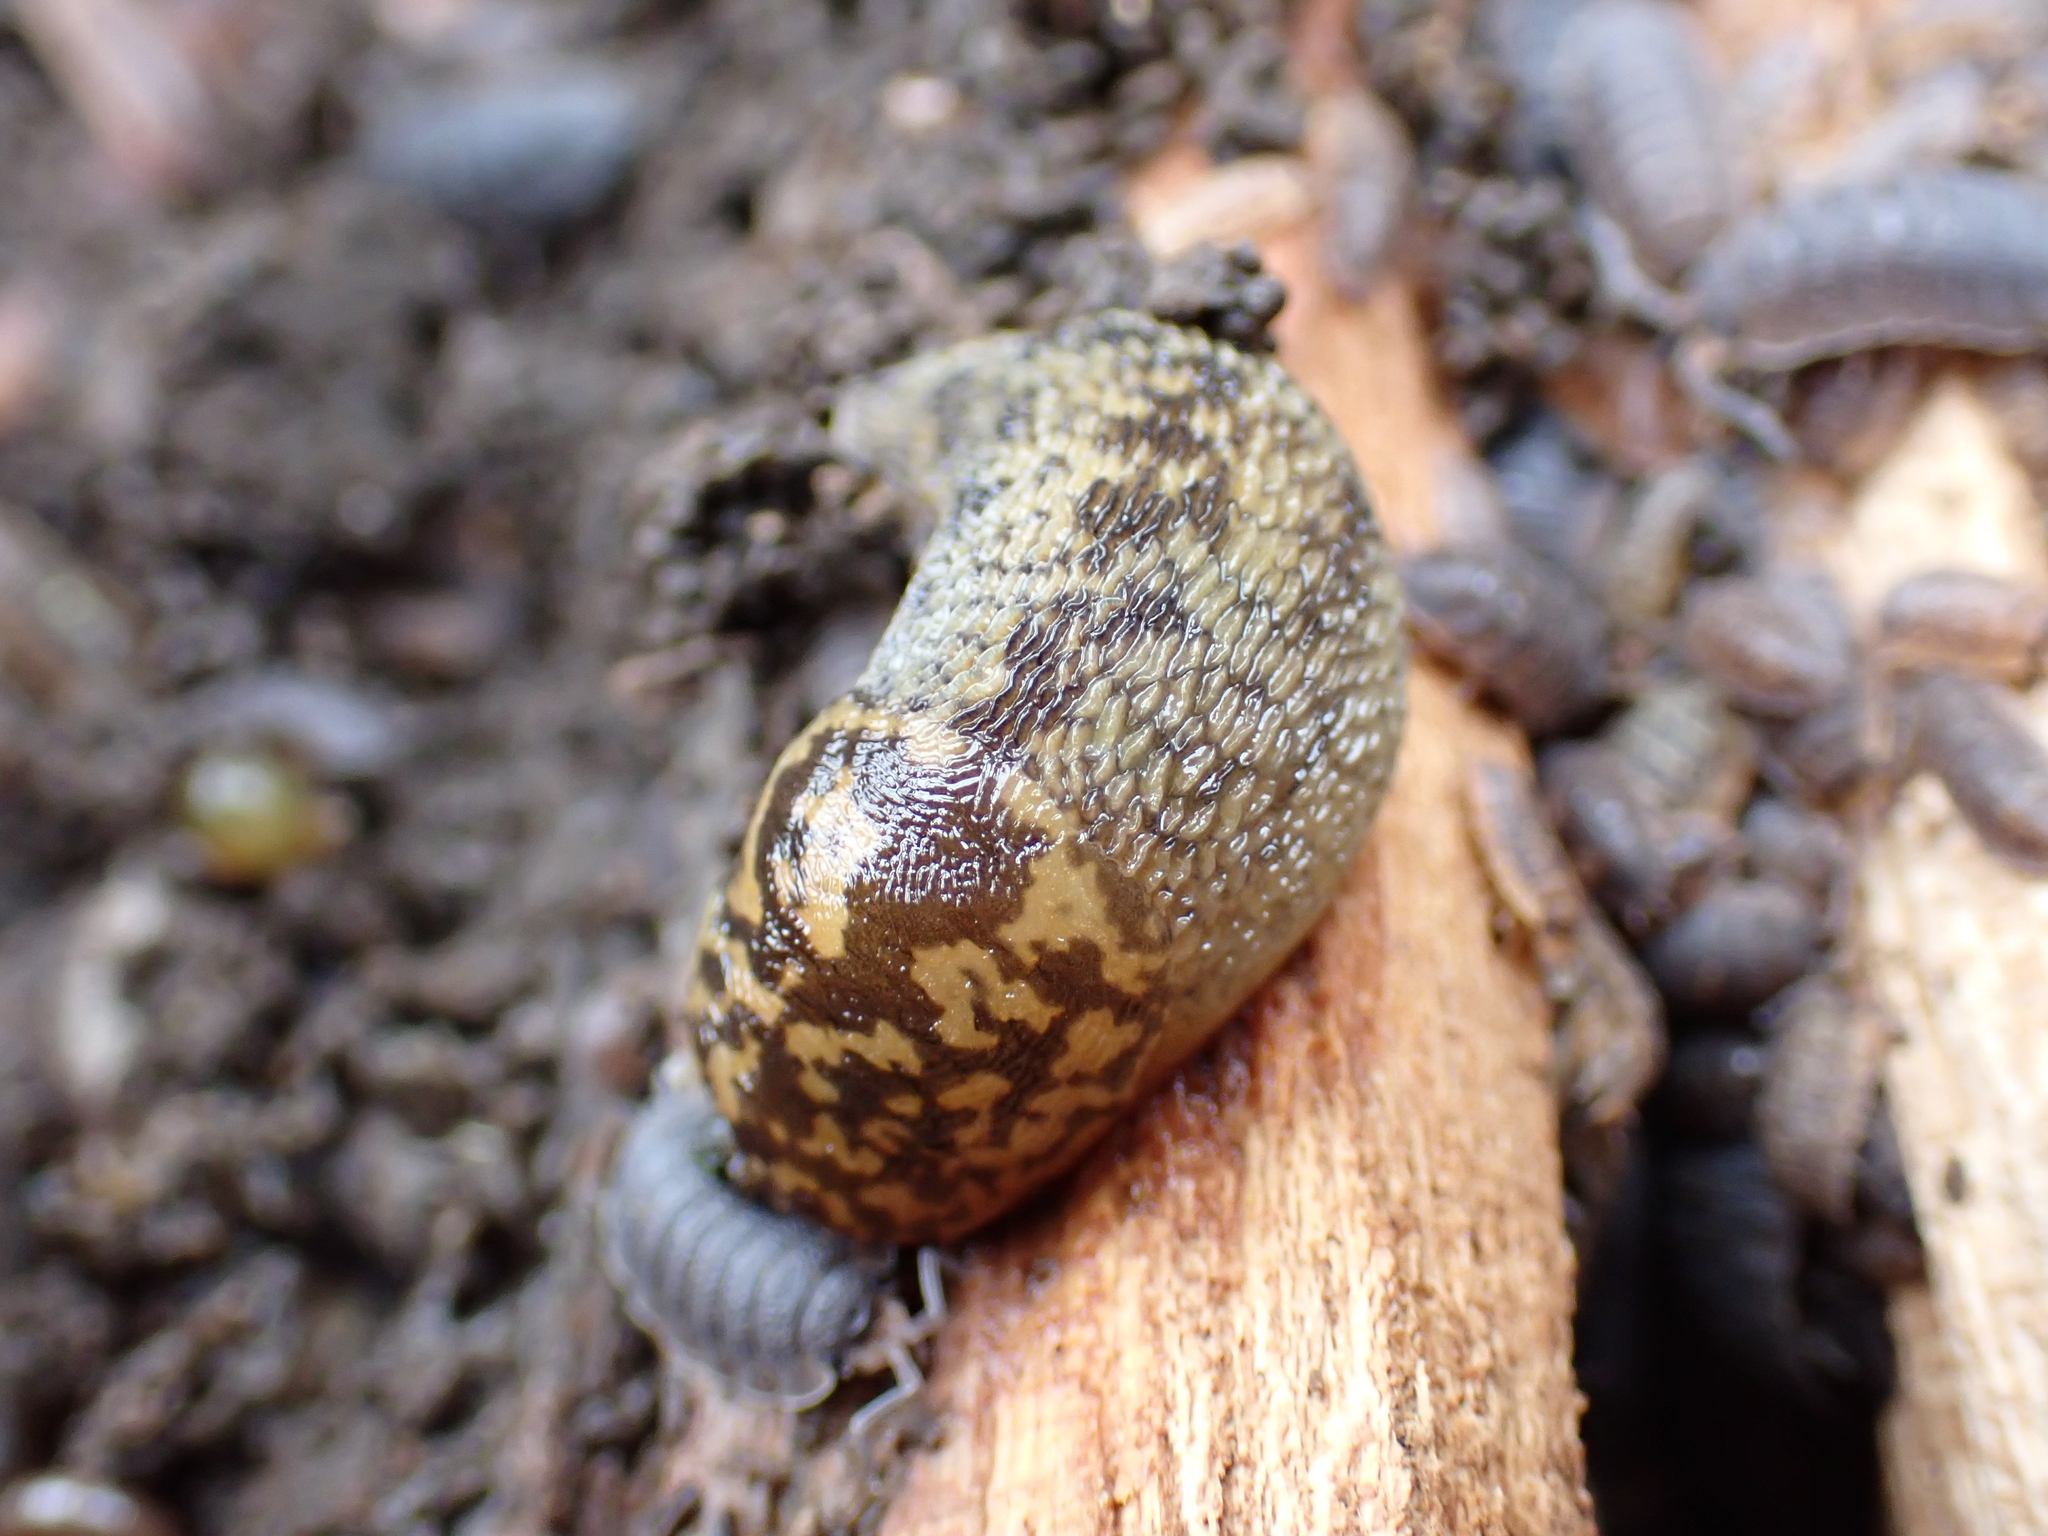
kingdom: Animalia
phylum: Mollusca
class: Gastropoda
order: Stylommatophora
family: Limacidae
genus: Limacus
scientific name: Limacus maculatus
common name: Irish yellow slug
